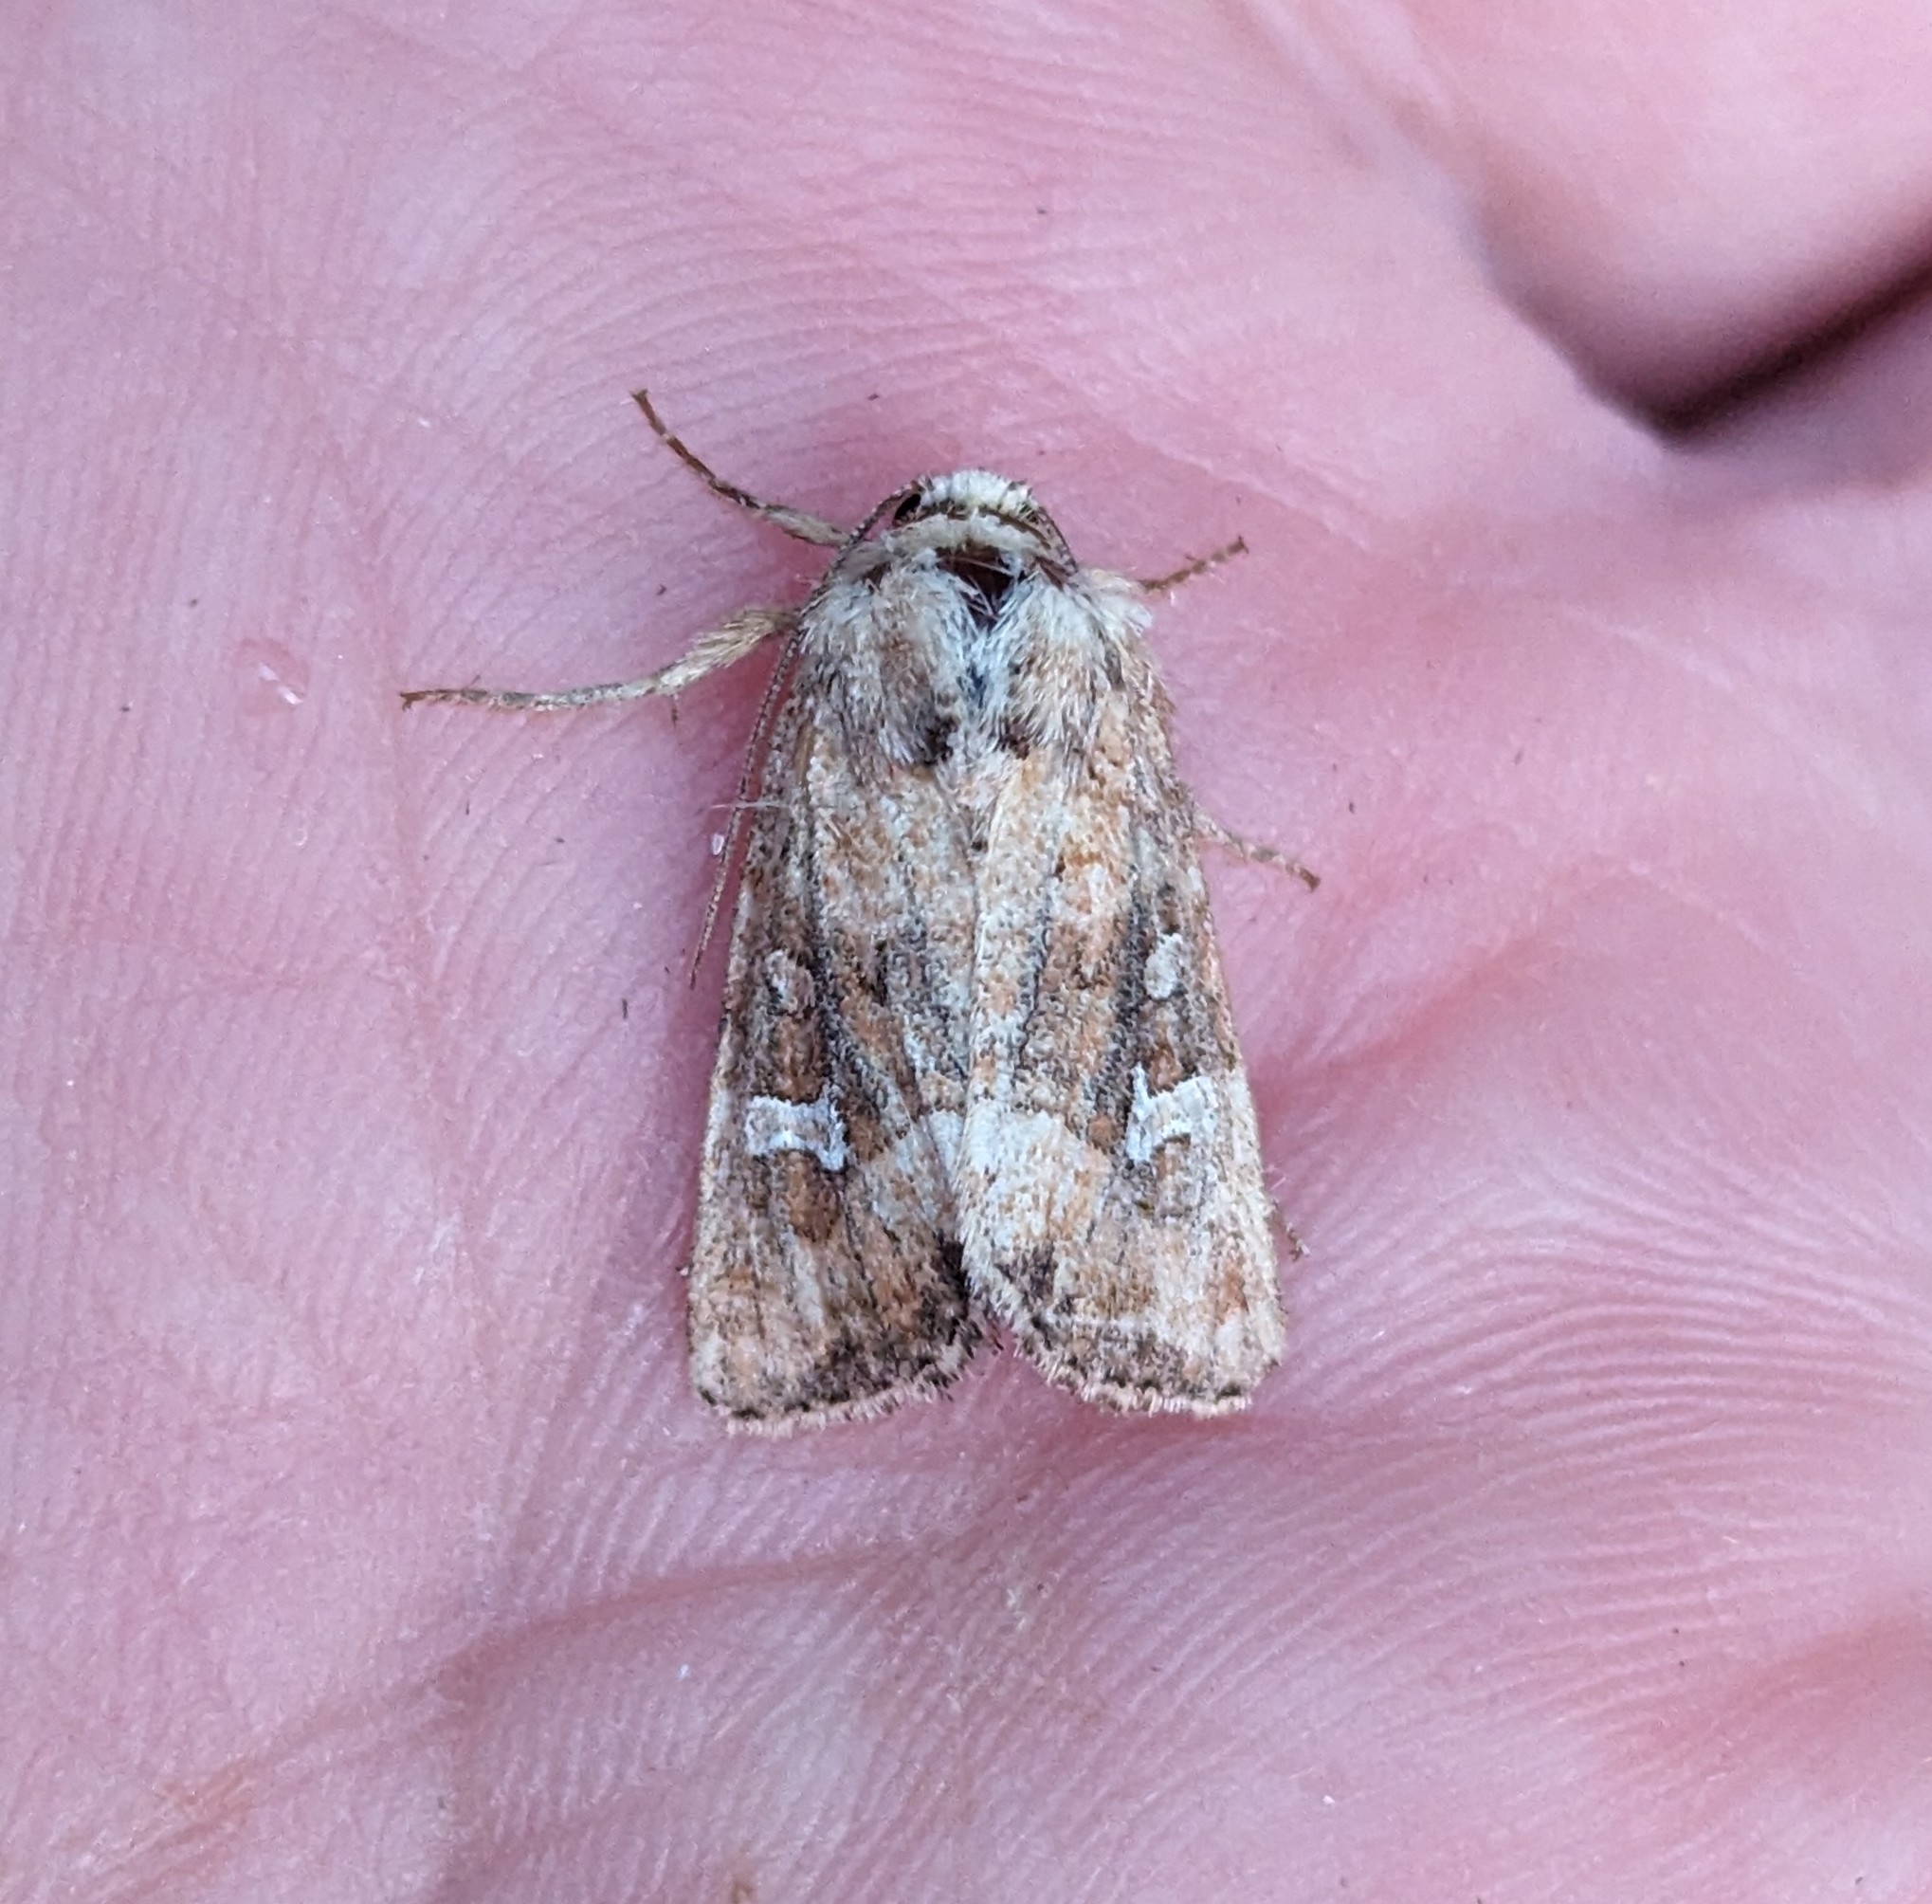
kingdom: Animalia
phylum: Arthropoda
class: Insecta
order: Lepidoptera
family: Noctuidae
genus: Lacinipolia
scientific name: Lacinipolia stricta
